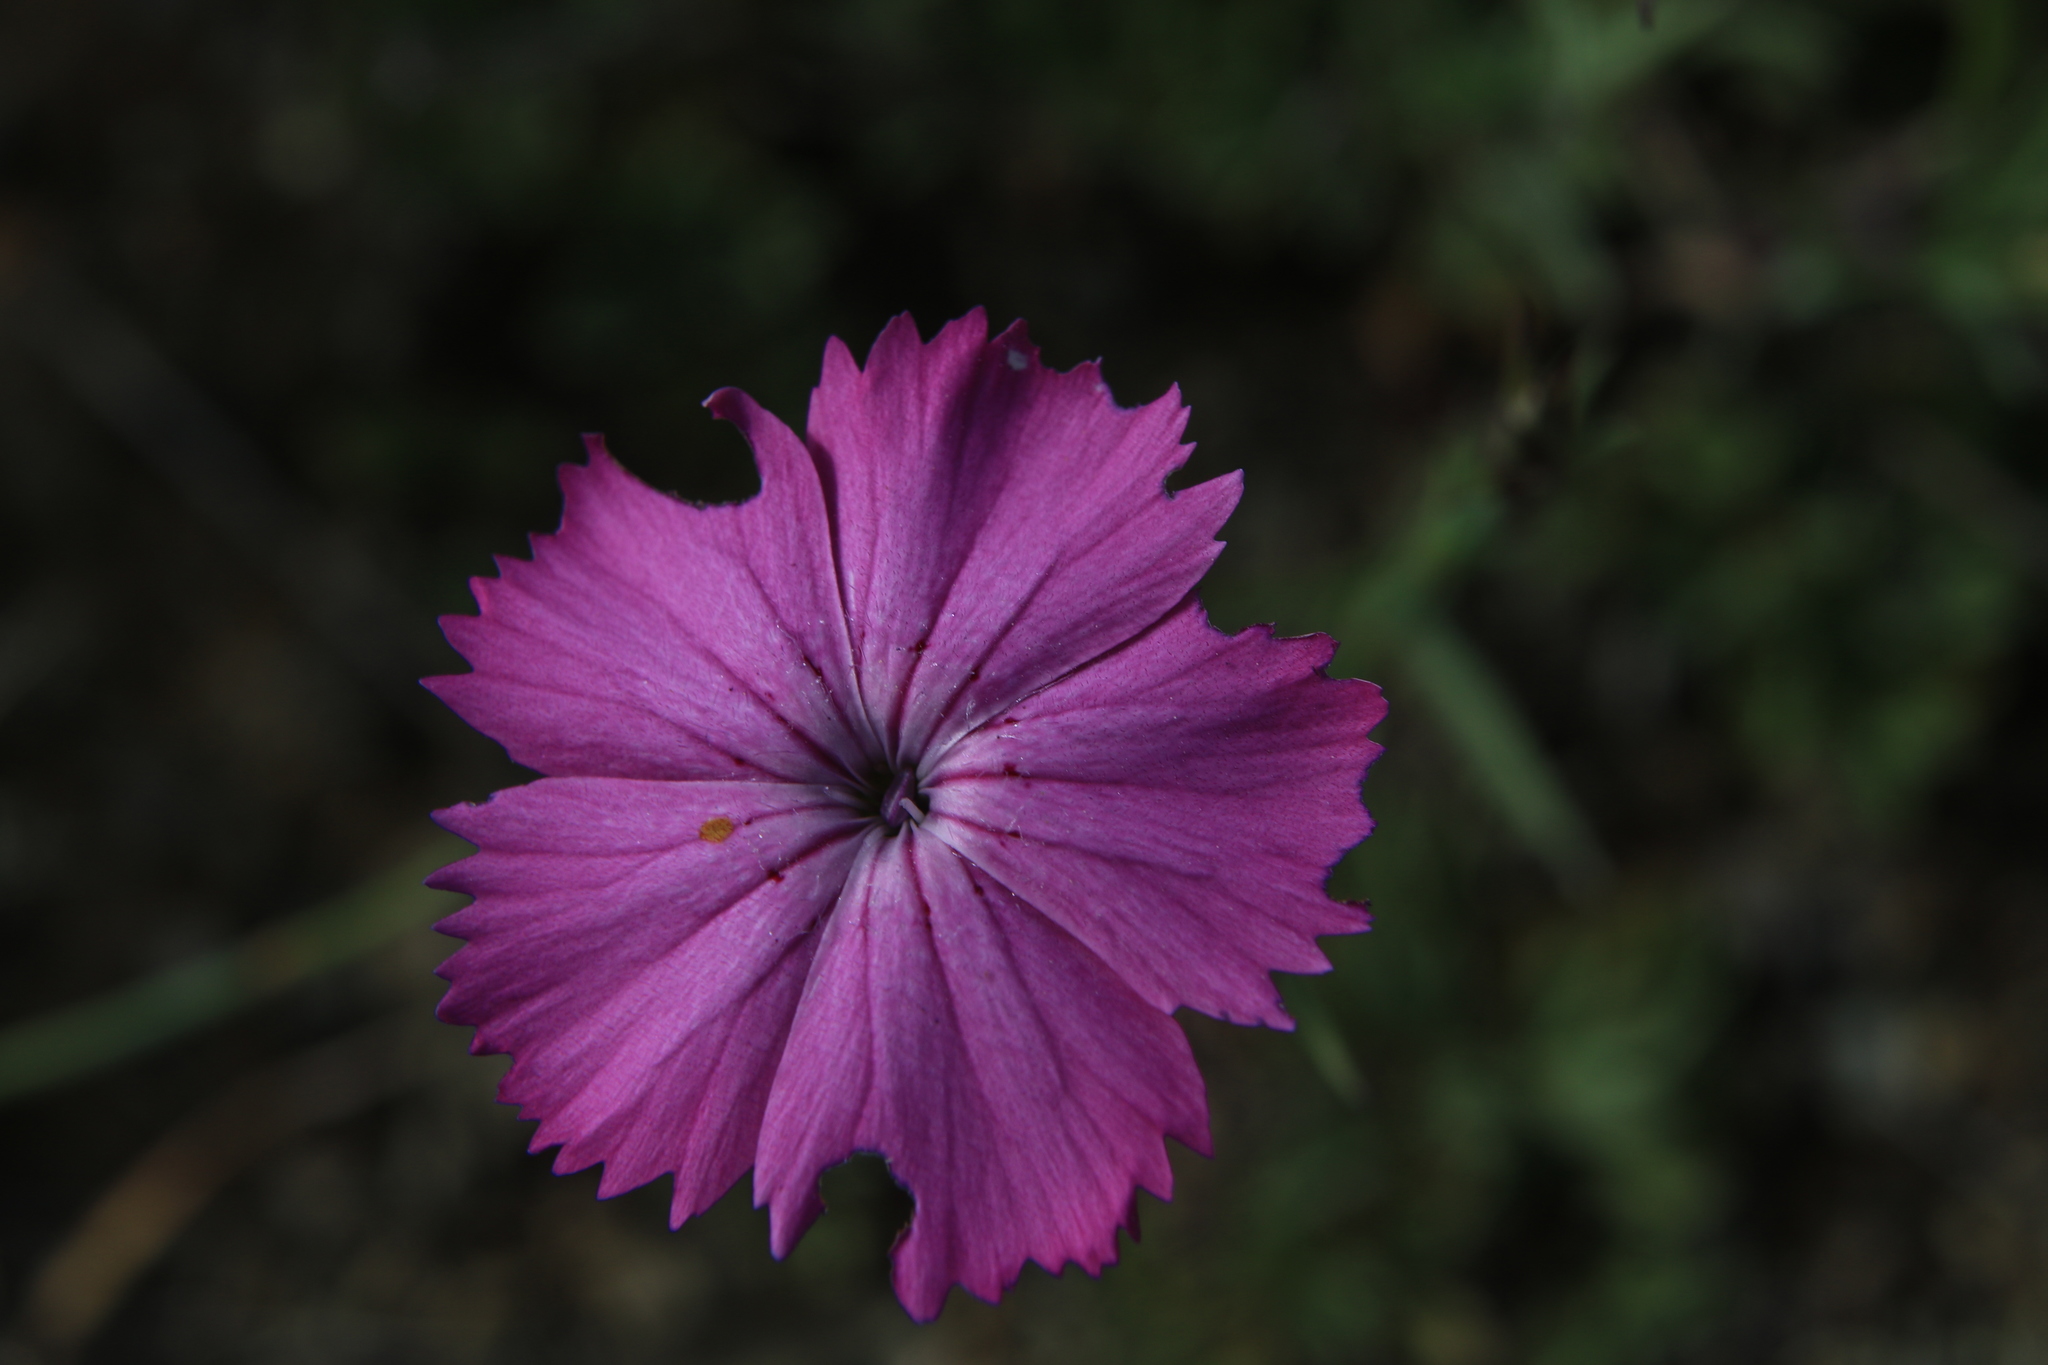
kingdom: Plantae
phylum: Tracheophyta
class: Magnoliopsida
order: Caryophyllales
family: Caryophyllaceae
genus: Dianthus
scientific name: Dianthus chinensis
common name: Rainbow pink
